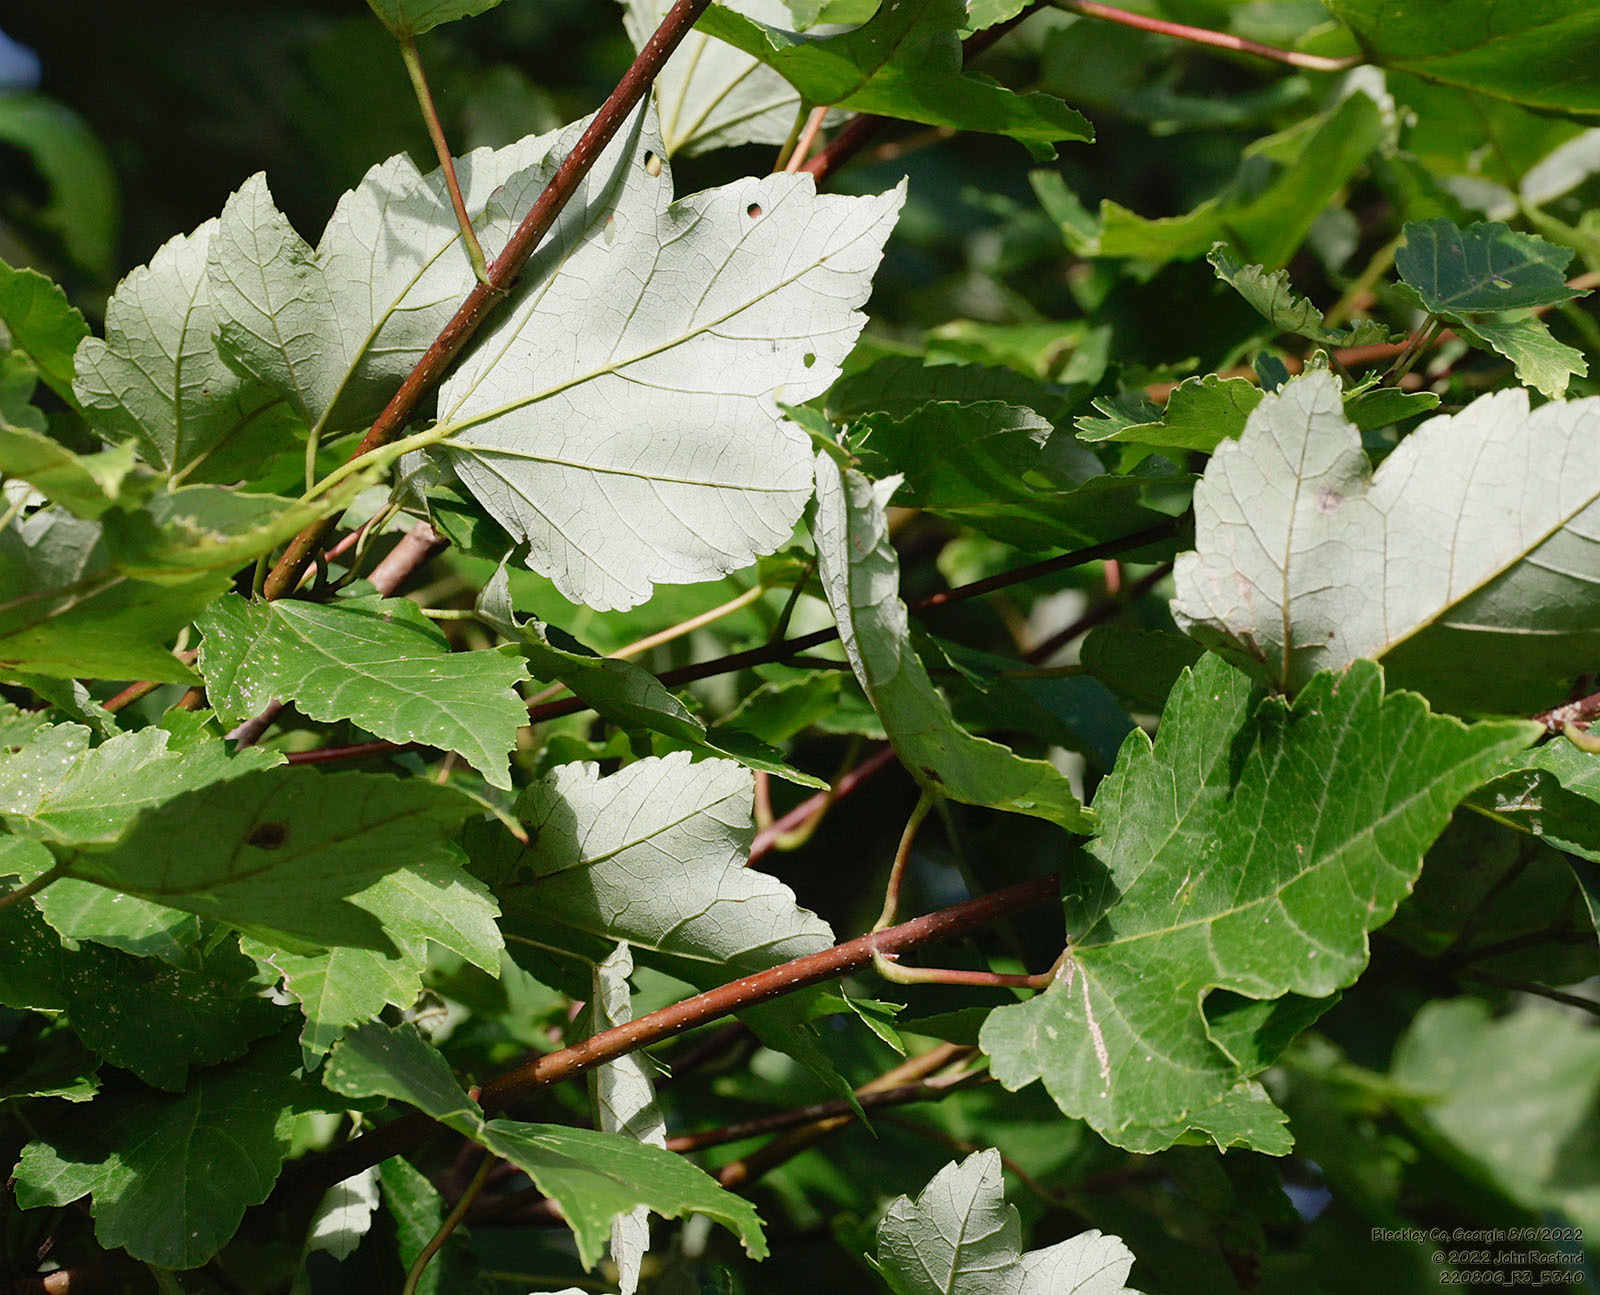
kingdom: Plantae
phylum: Tracheophyta
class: Magnoliopsida
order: Sapindales
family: Sapindaceae
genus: Acer
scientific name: Acer rubrum
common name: Red maple
